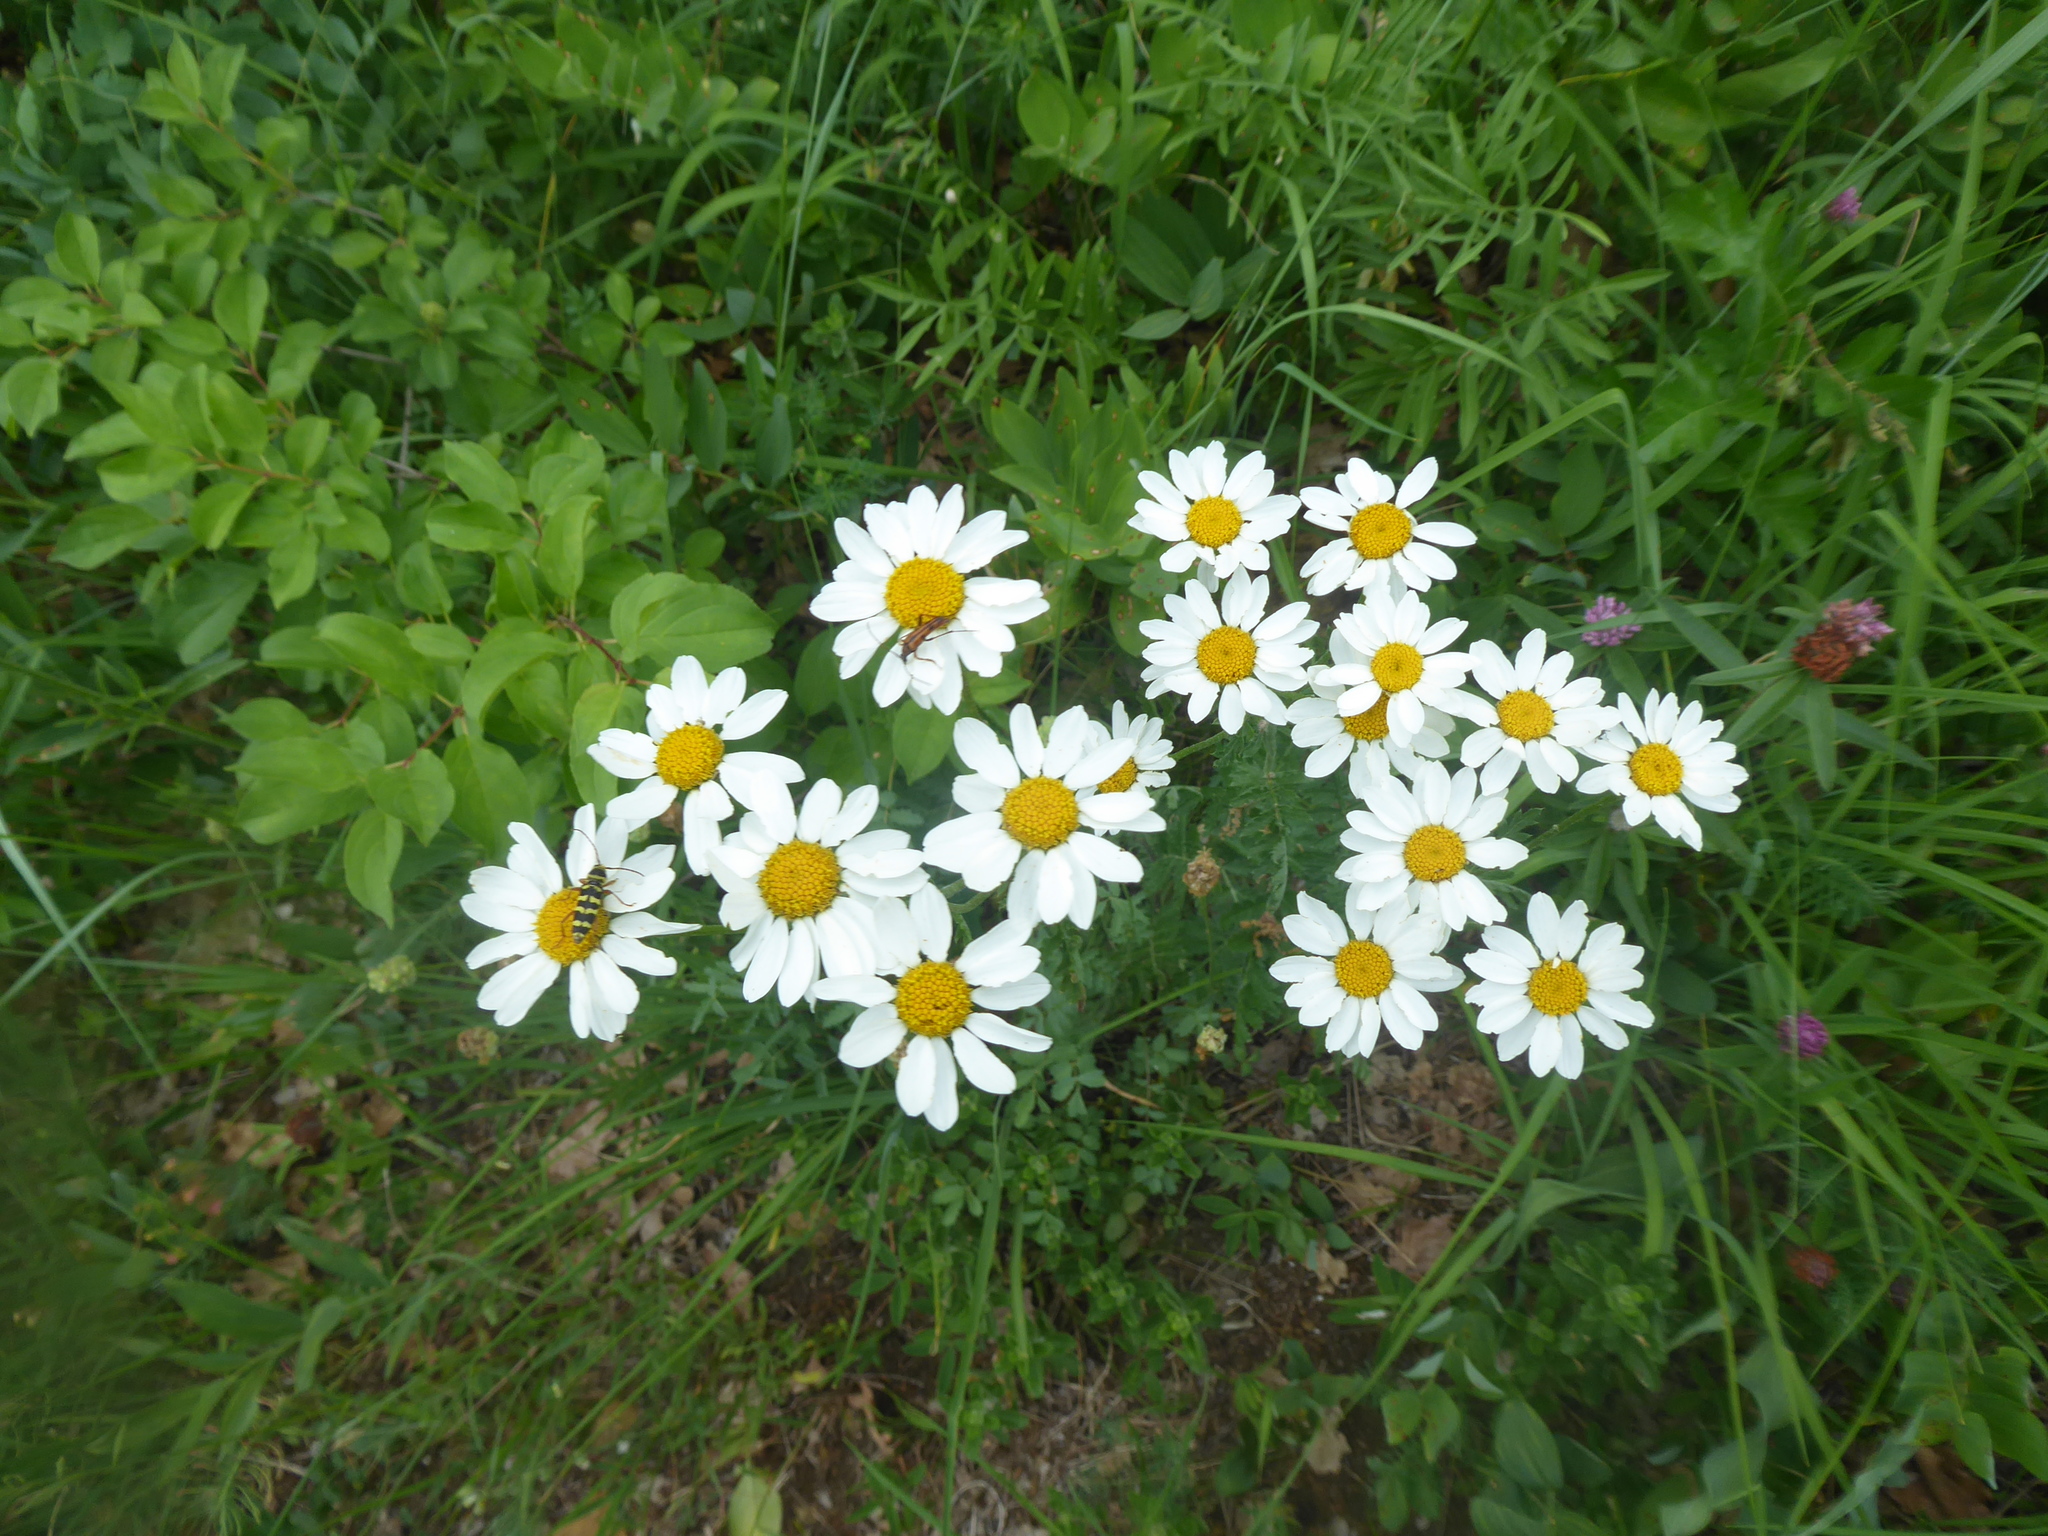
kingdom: Plantae
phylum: Tracheophyta
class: Magnoliopsida
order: Asterales
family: Asteraceae
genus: Tanacetum
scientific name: Tanacetum corymbosum
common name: Scentless feverfew
